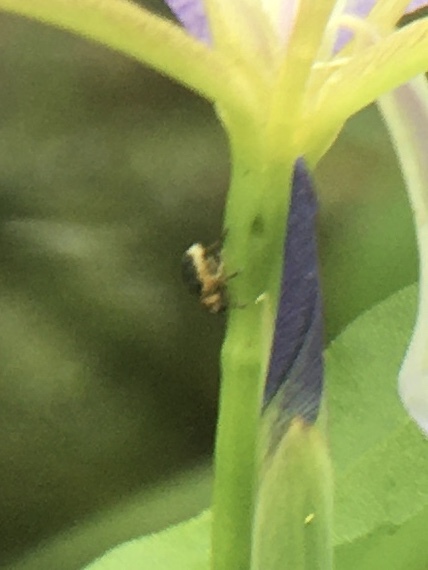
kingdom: Animalia
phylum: Arthropoda
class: Insecta
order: Coleoptera
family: Curculionidae
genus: Mononychus
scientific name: Mononychus vulpeculus
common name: Iris weevil
